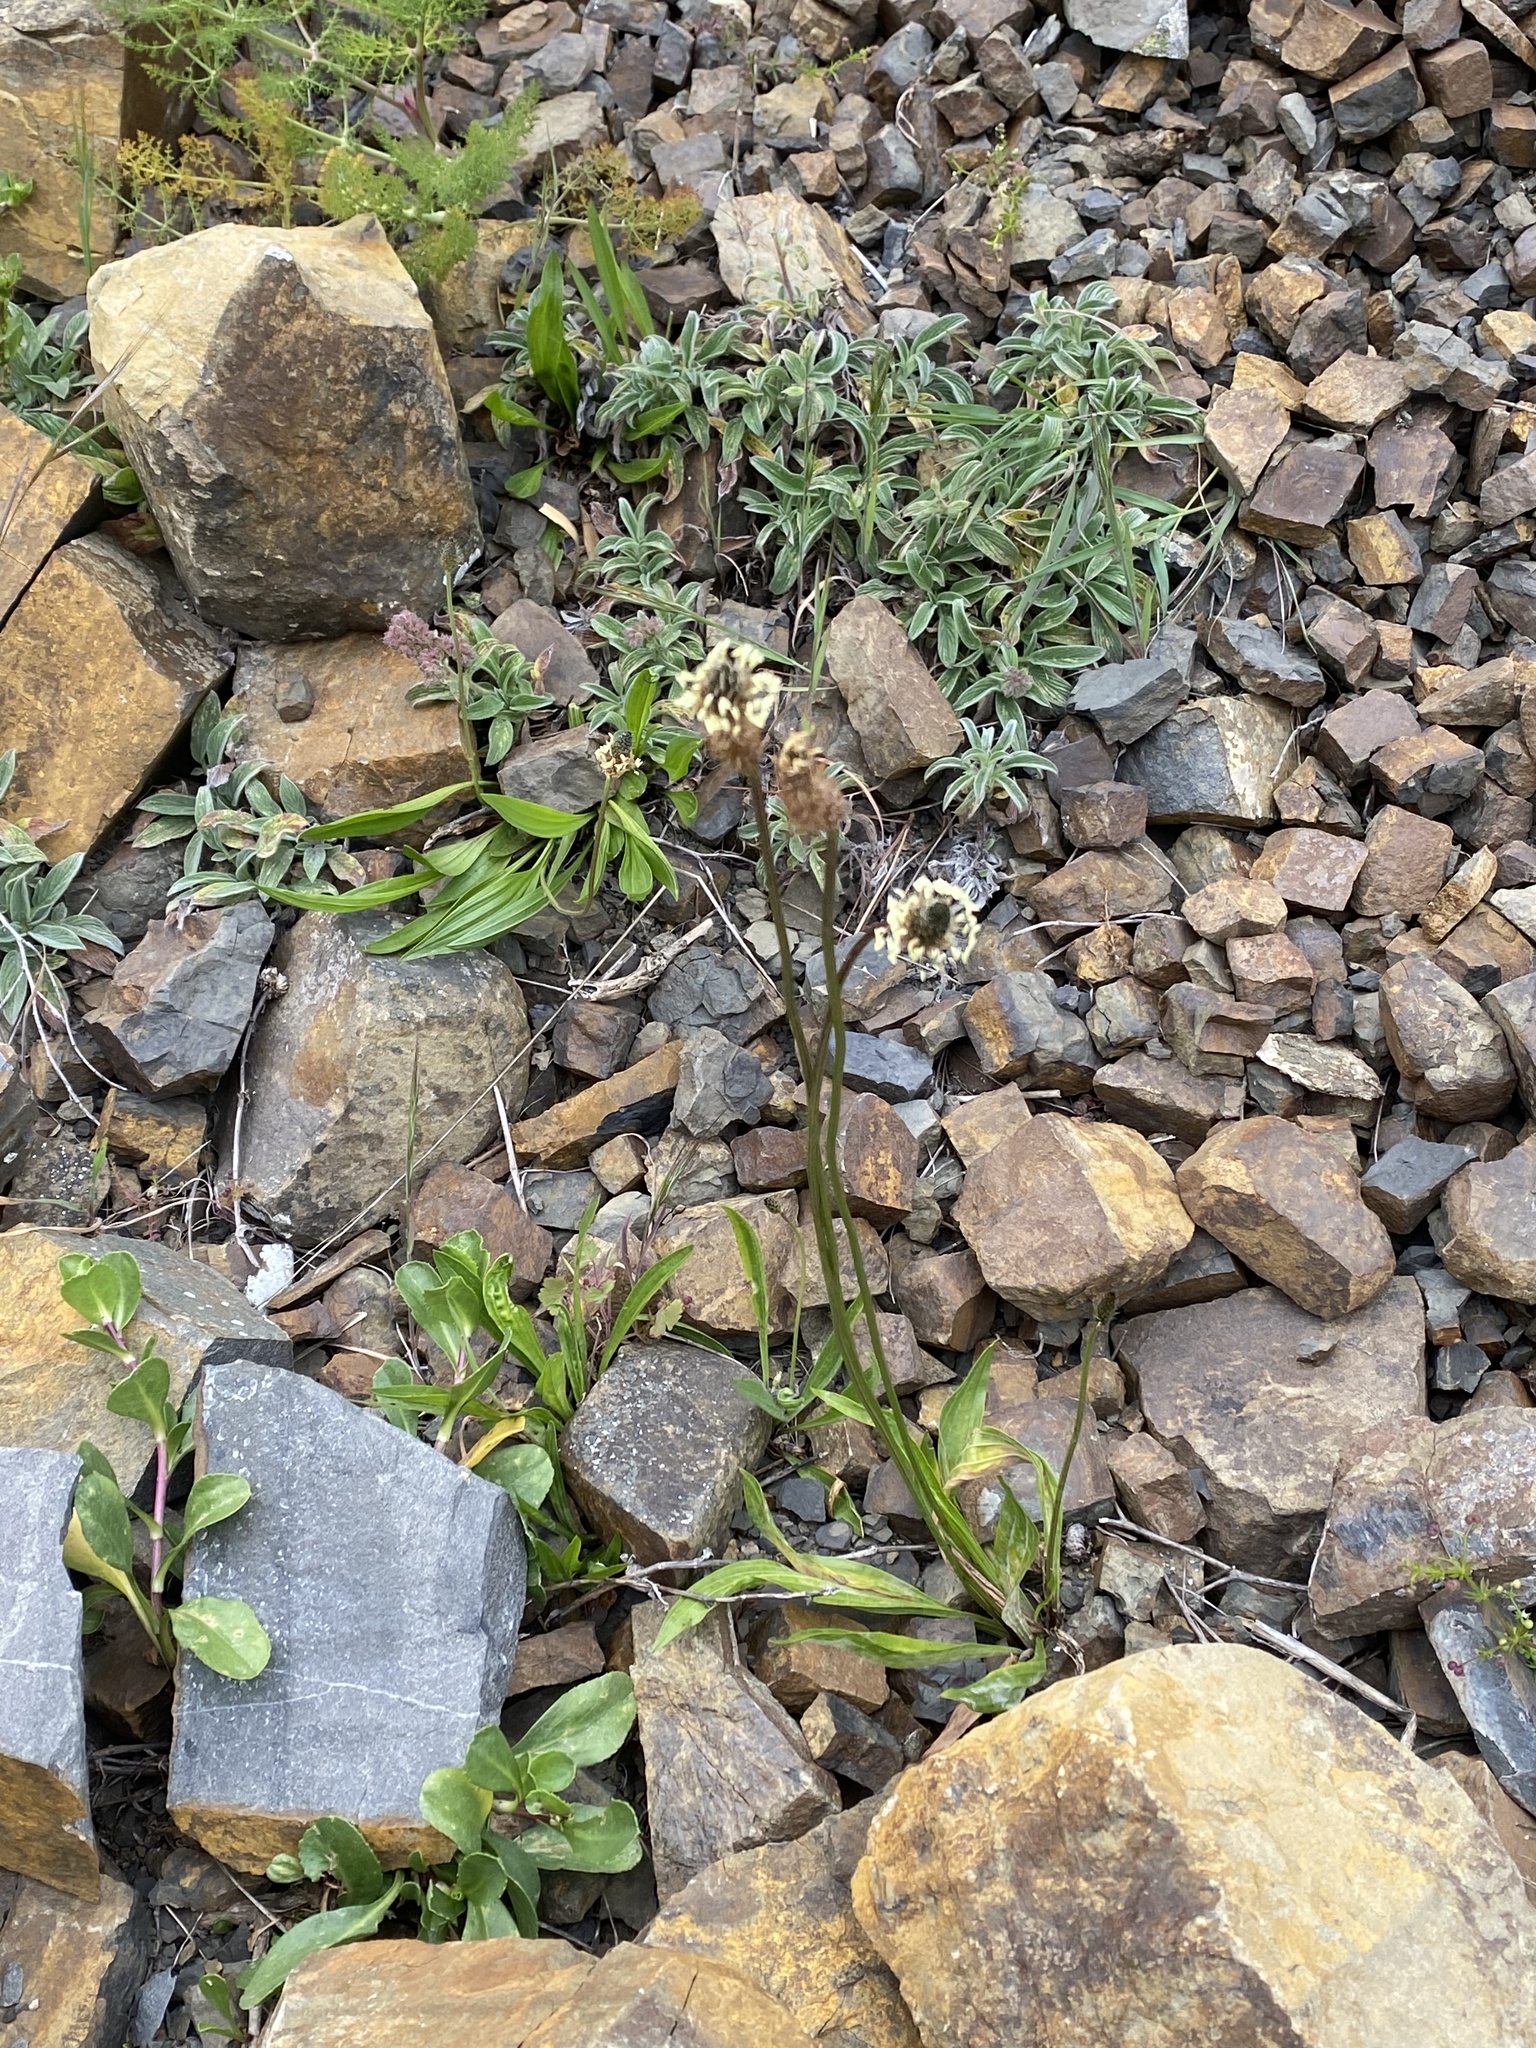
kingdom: Plantae
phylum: Tracheophyta
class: Magnoliopsida
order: Lamiales
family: Plantaginaceae
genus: Plantago
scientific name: Plantago lanceolata
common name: Ribwort plantain
